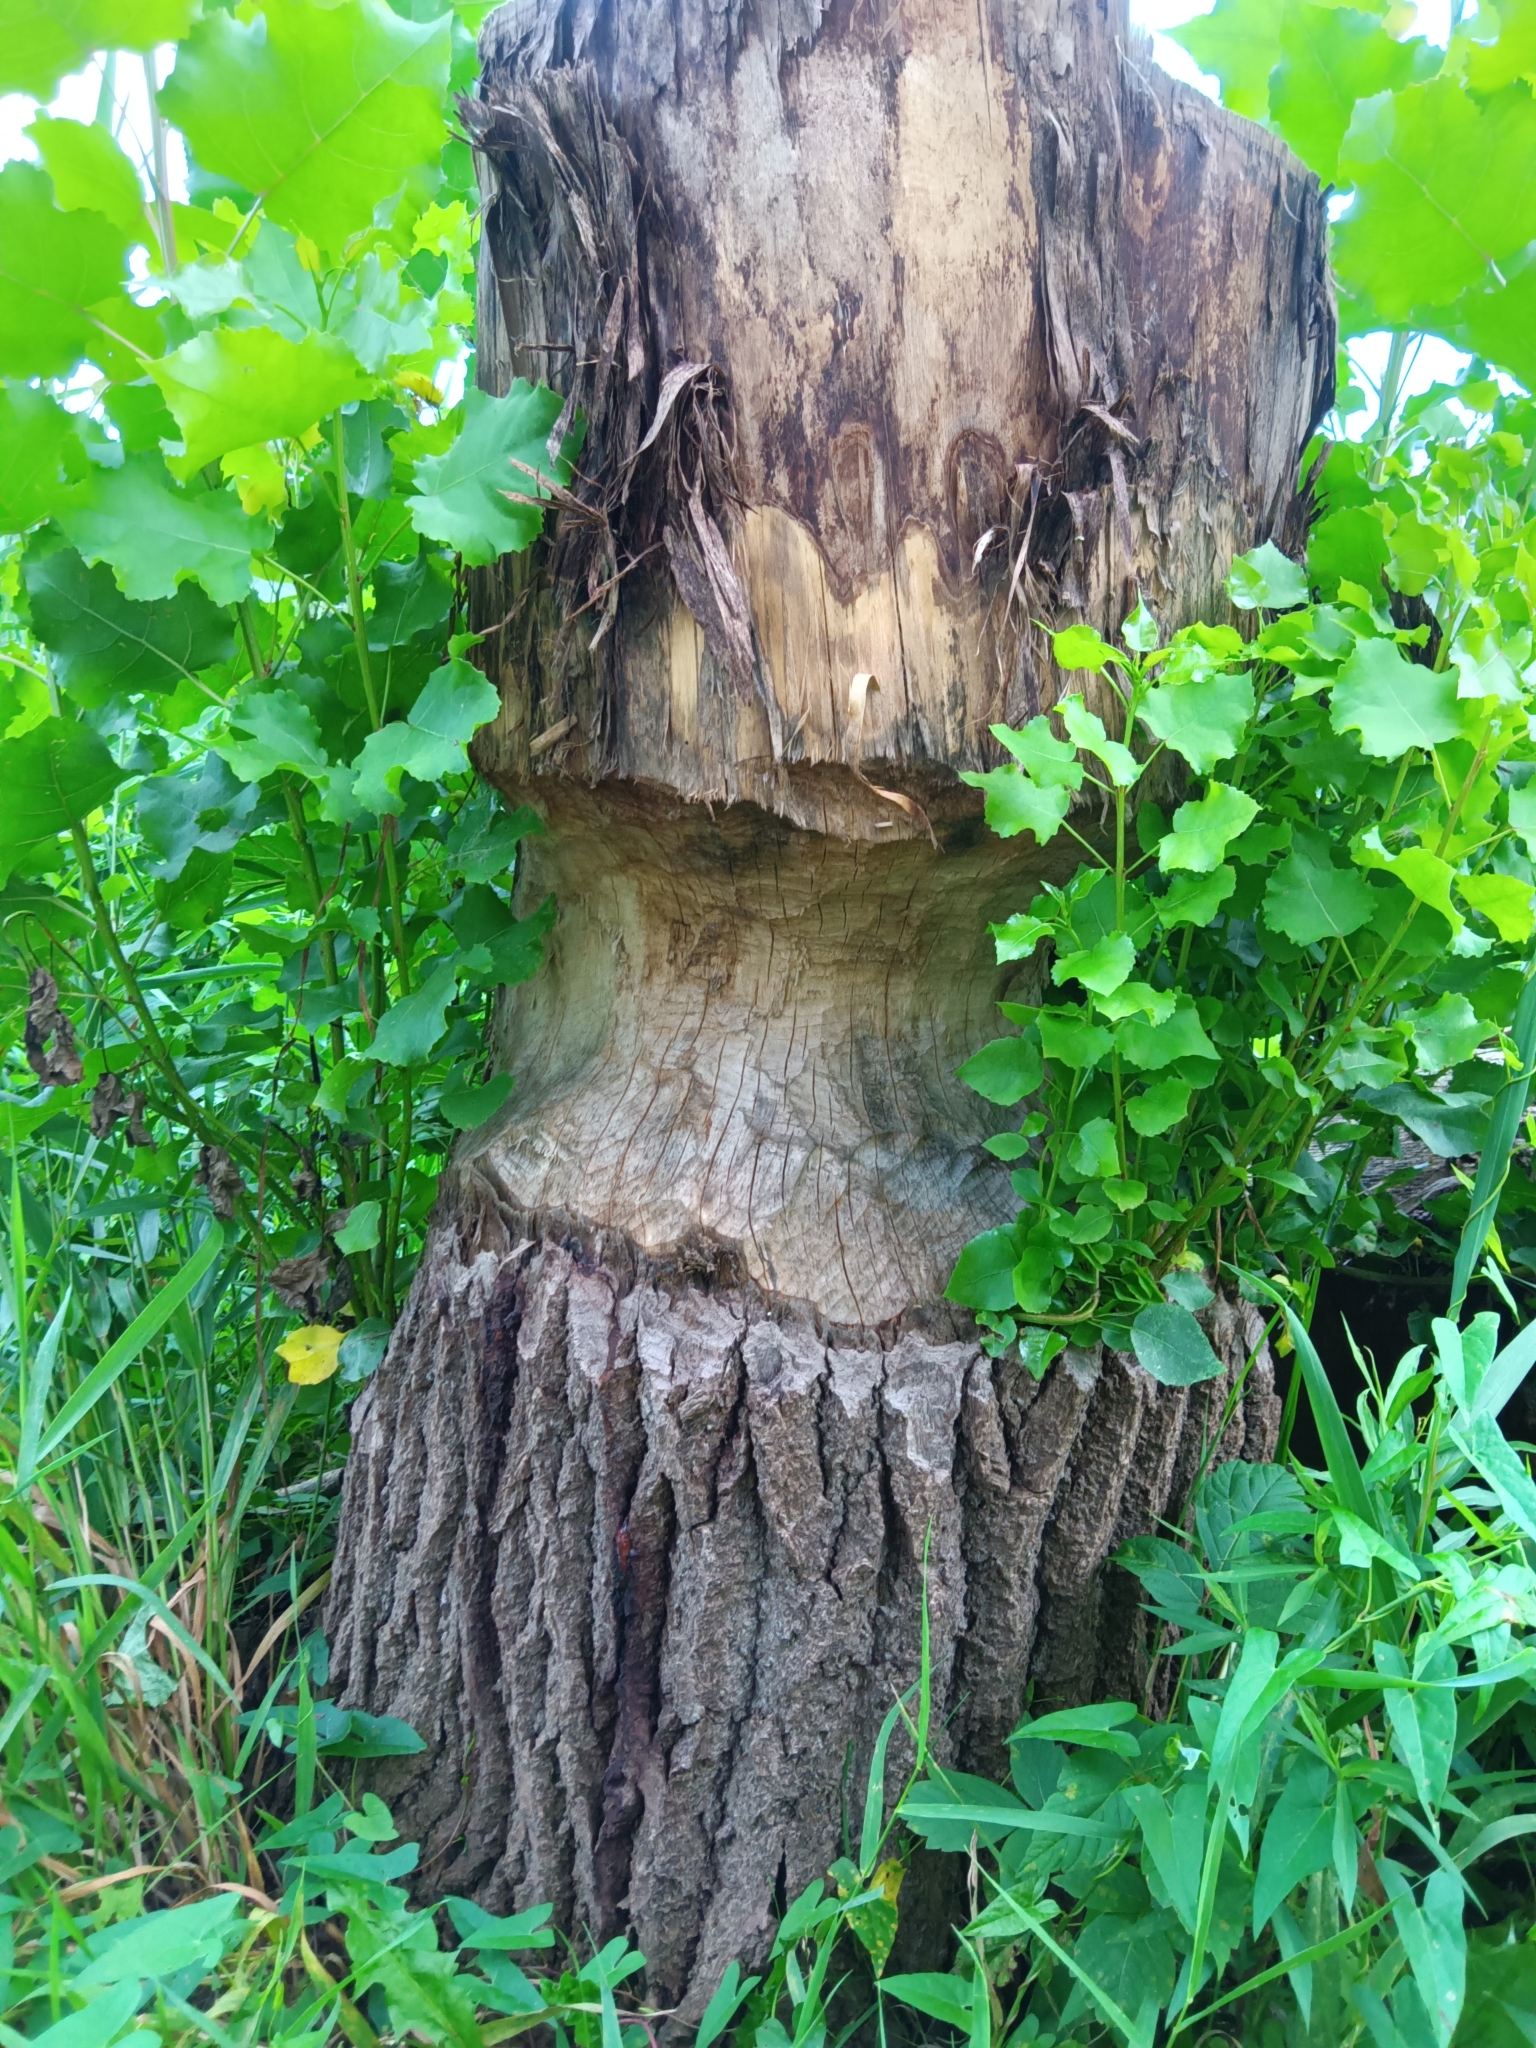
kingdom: Animalia
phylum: Chordata
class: Mammalia
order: Rodentia
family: Castoridae
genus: Castor
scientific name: Castor canadensis
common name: American beaver
